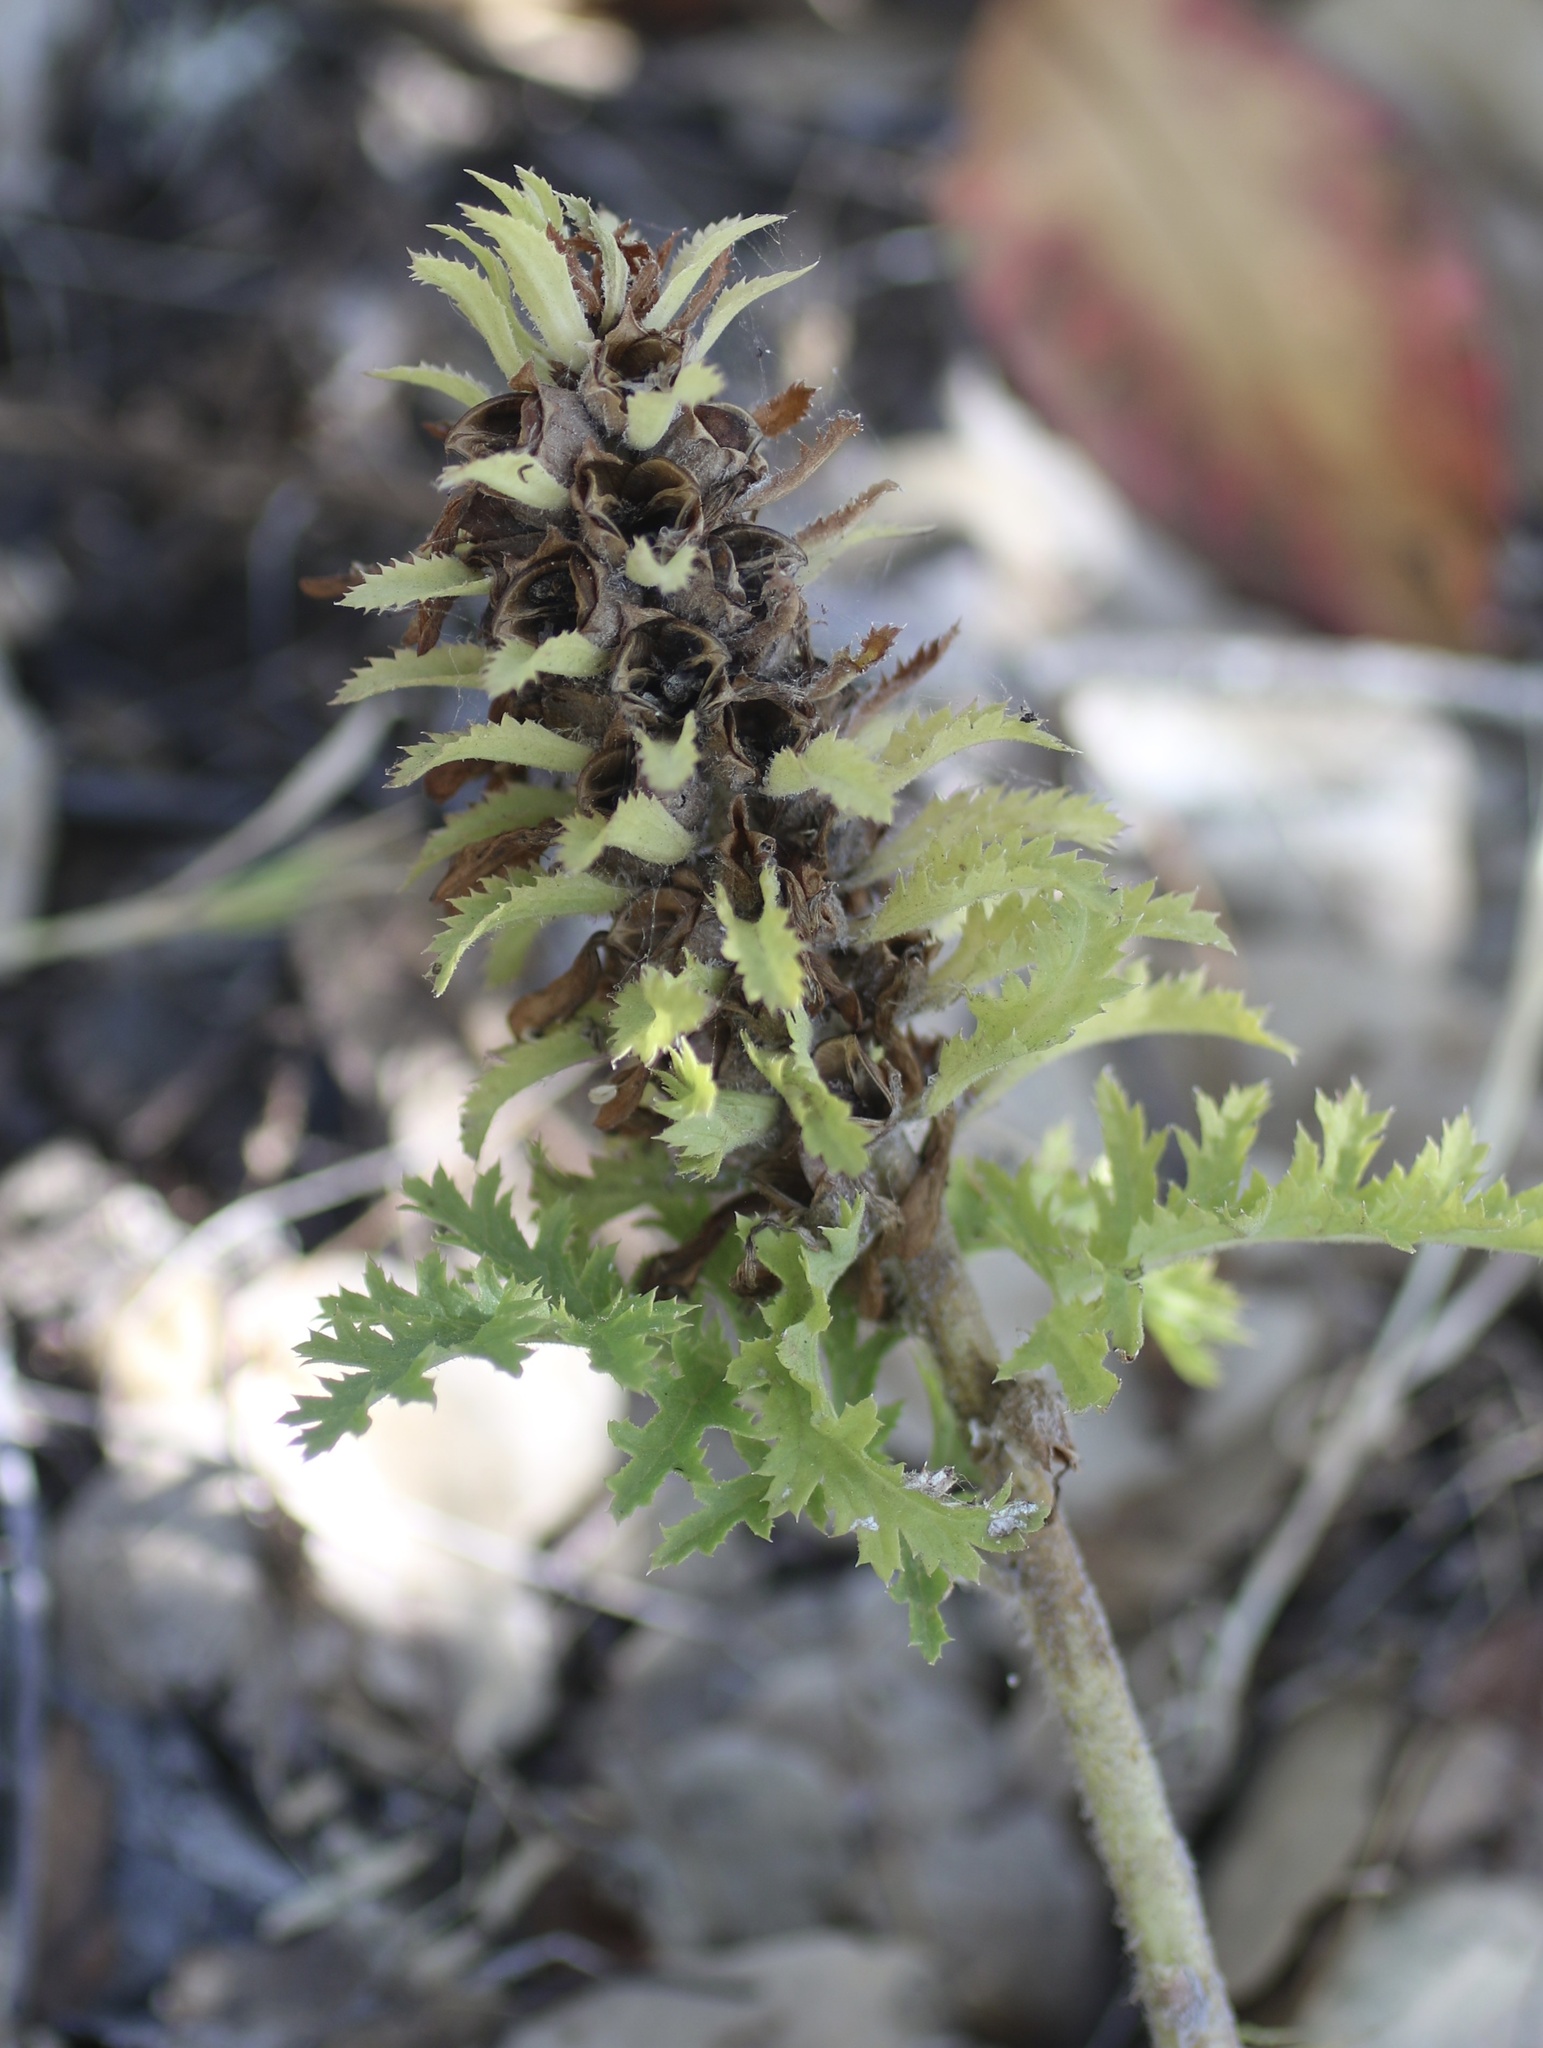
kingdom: Plantae
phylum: Tracheophyta
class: Magnoliopsida
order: Lamiales
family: Orobanchaceae
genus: Pedicularis
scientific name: Pedicularis densiflora
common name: Indian warrior
